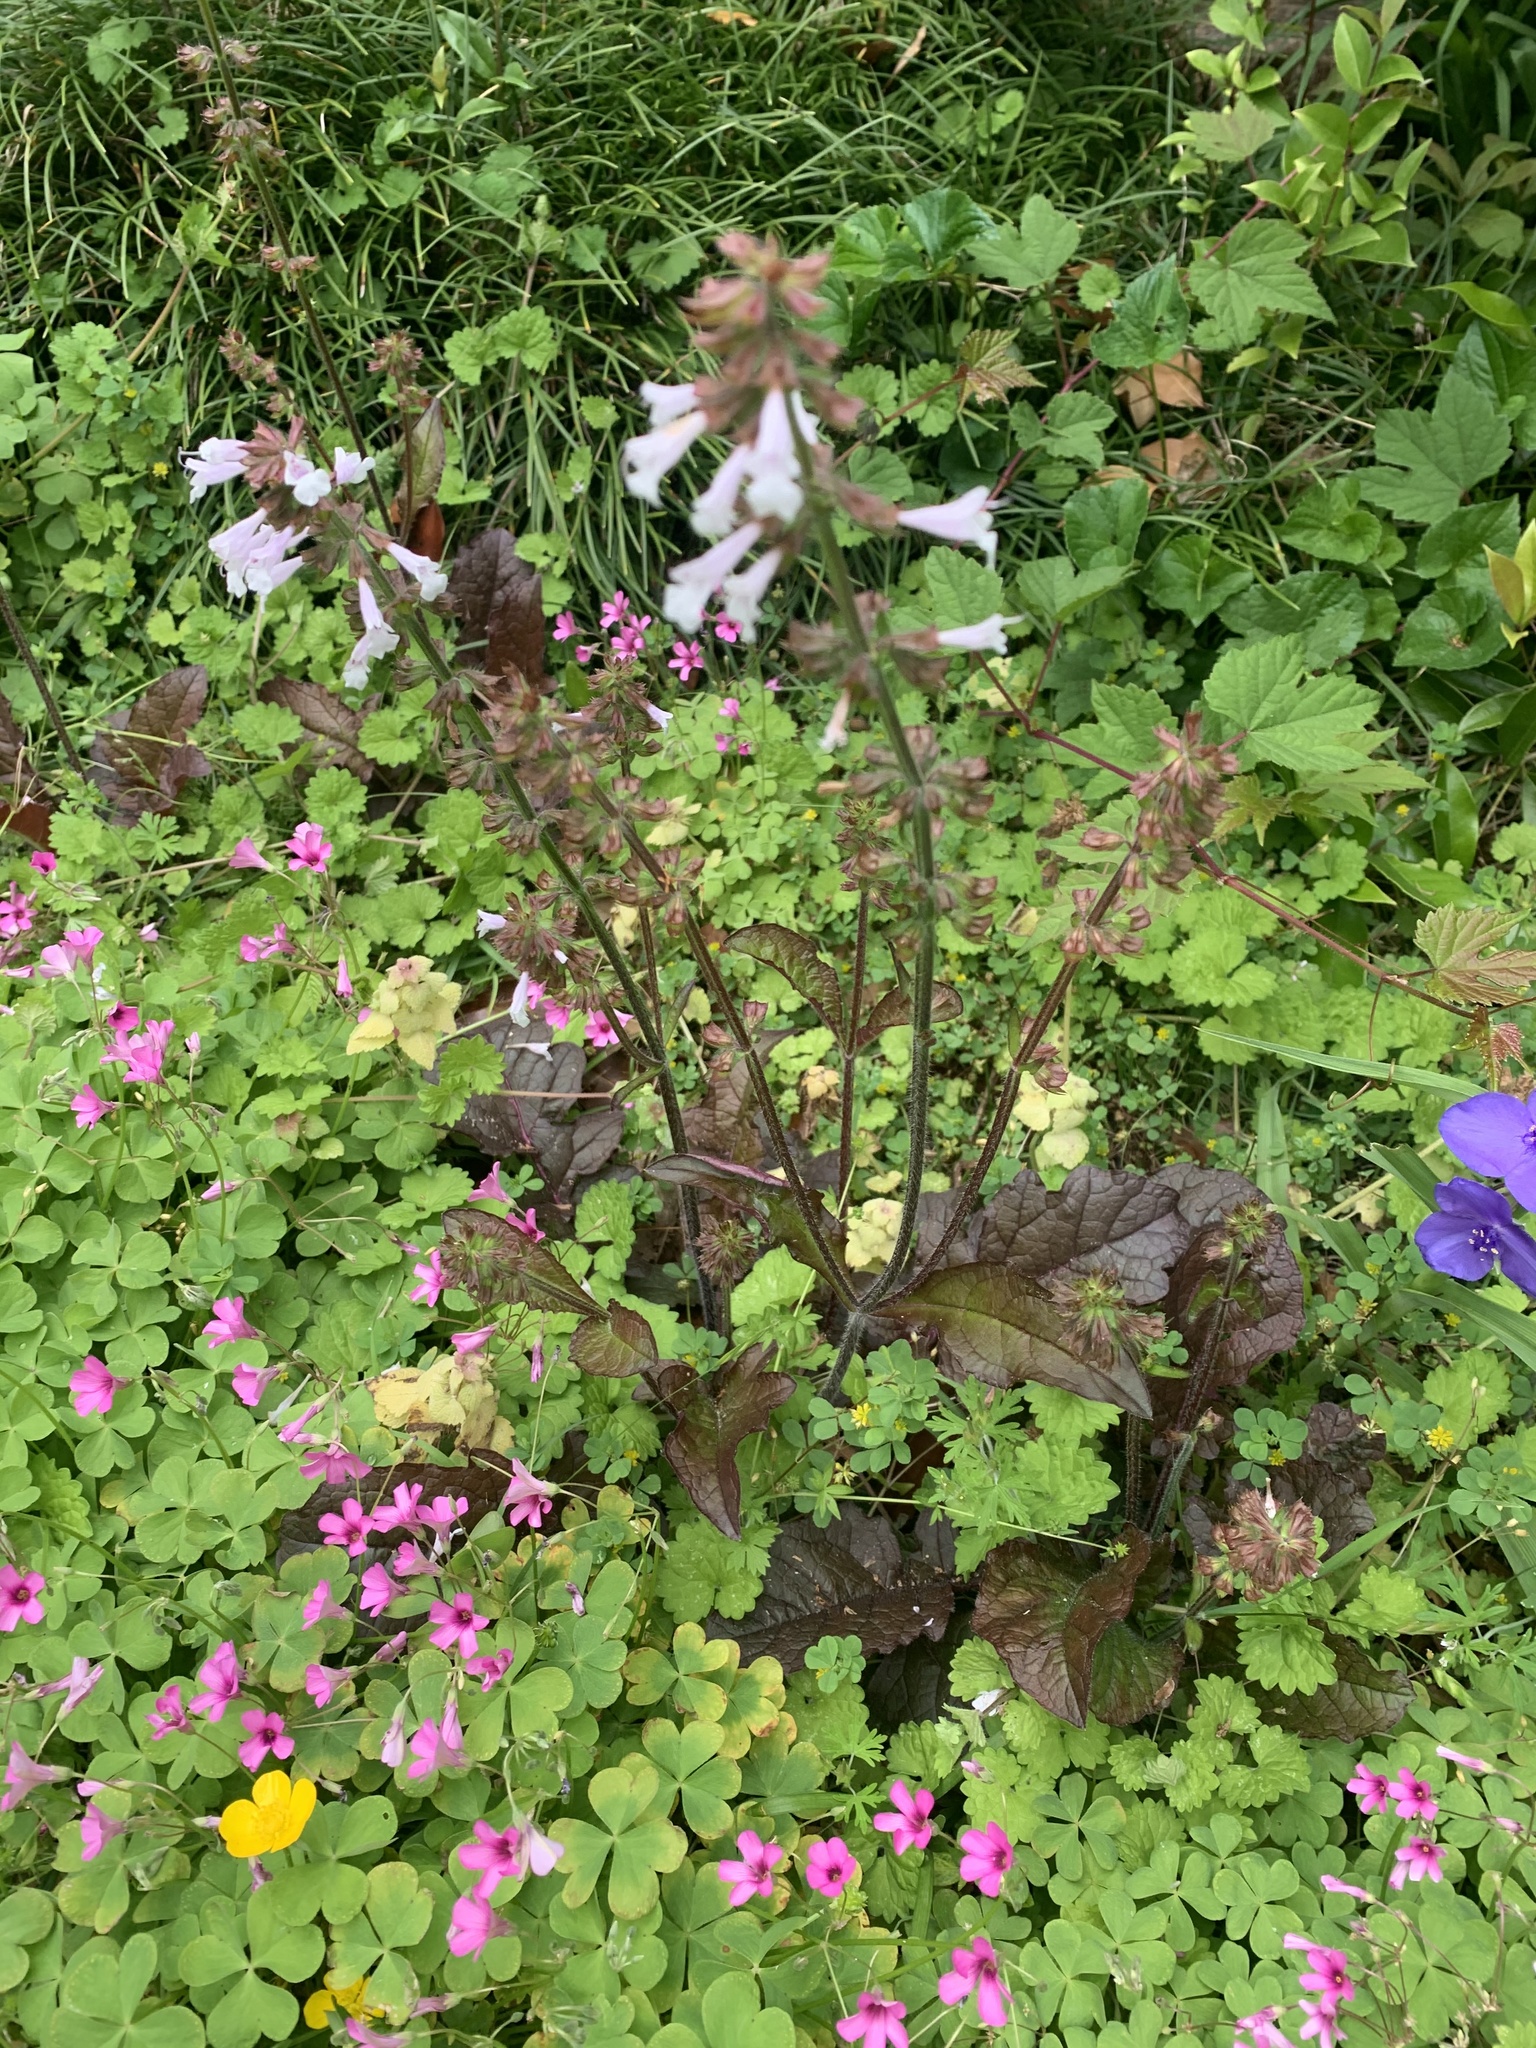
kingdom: Plantae
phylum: Tracheophyta
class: Magnoliopsida
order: Lamiales
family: Lamiaceae
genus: Salvia
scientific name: Salvia lyrata
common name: Cancerweed
